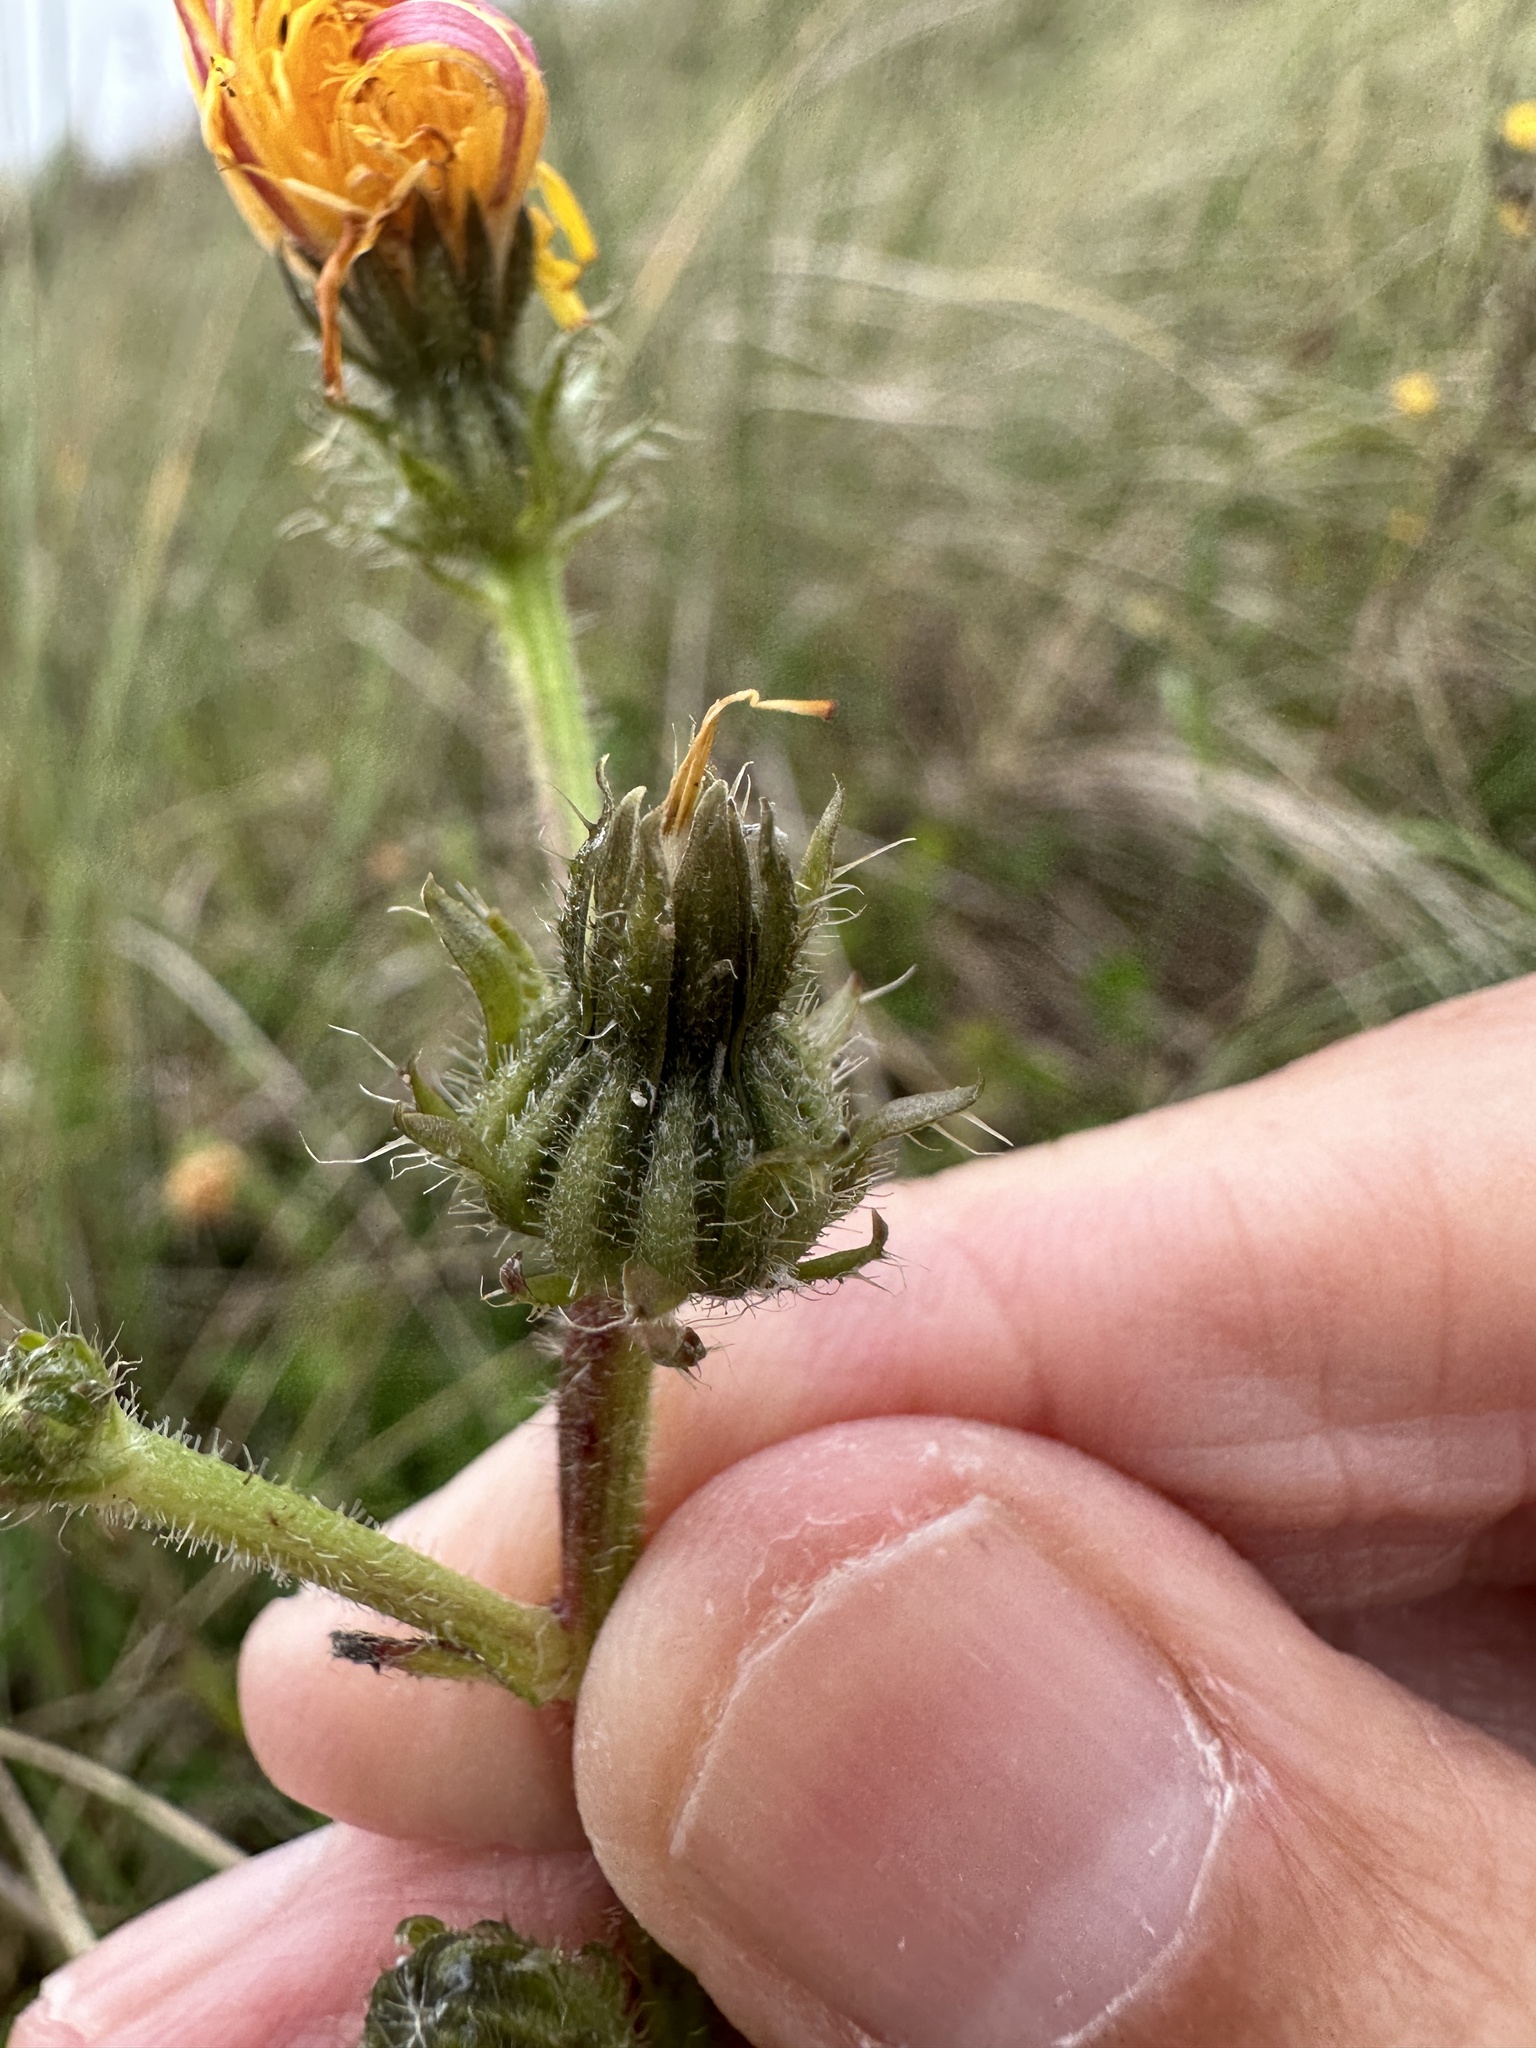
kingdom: Plantae
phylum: Tracheophyta
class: Magnoliopsida
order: Asterales
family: Asteraceae
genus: Picris
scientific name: Picris hieracioides
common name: Hawkweed oxtongue
